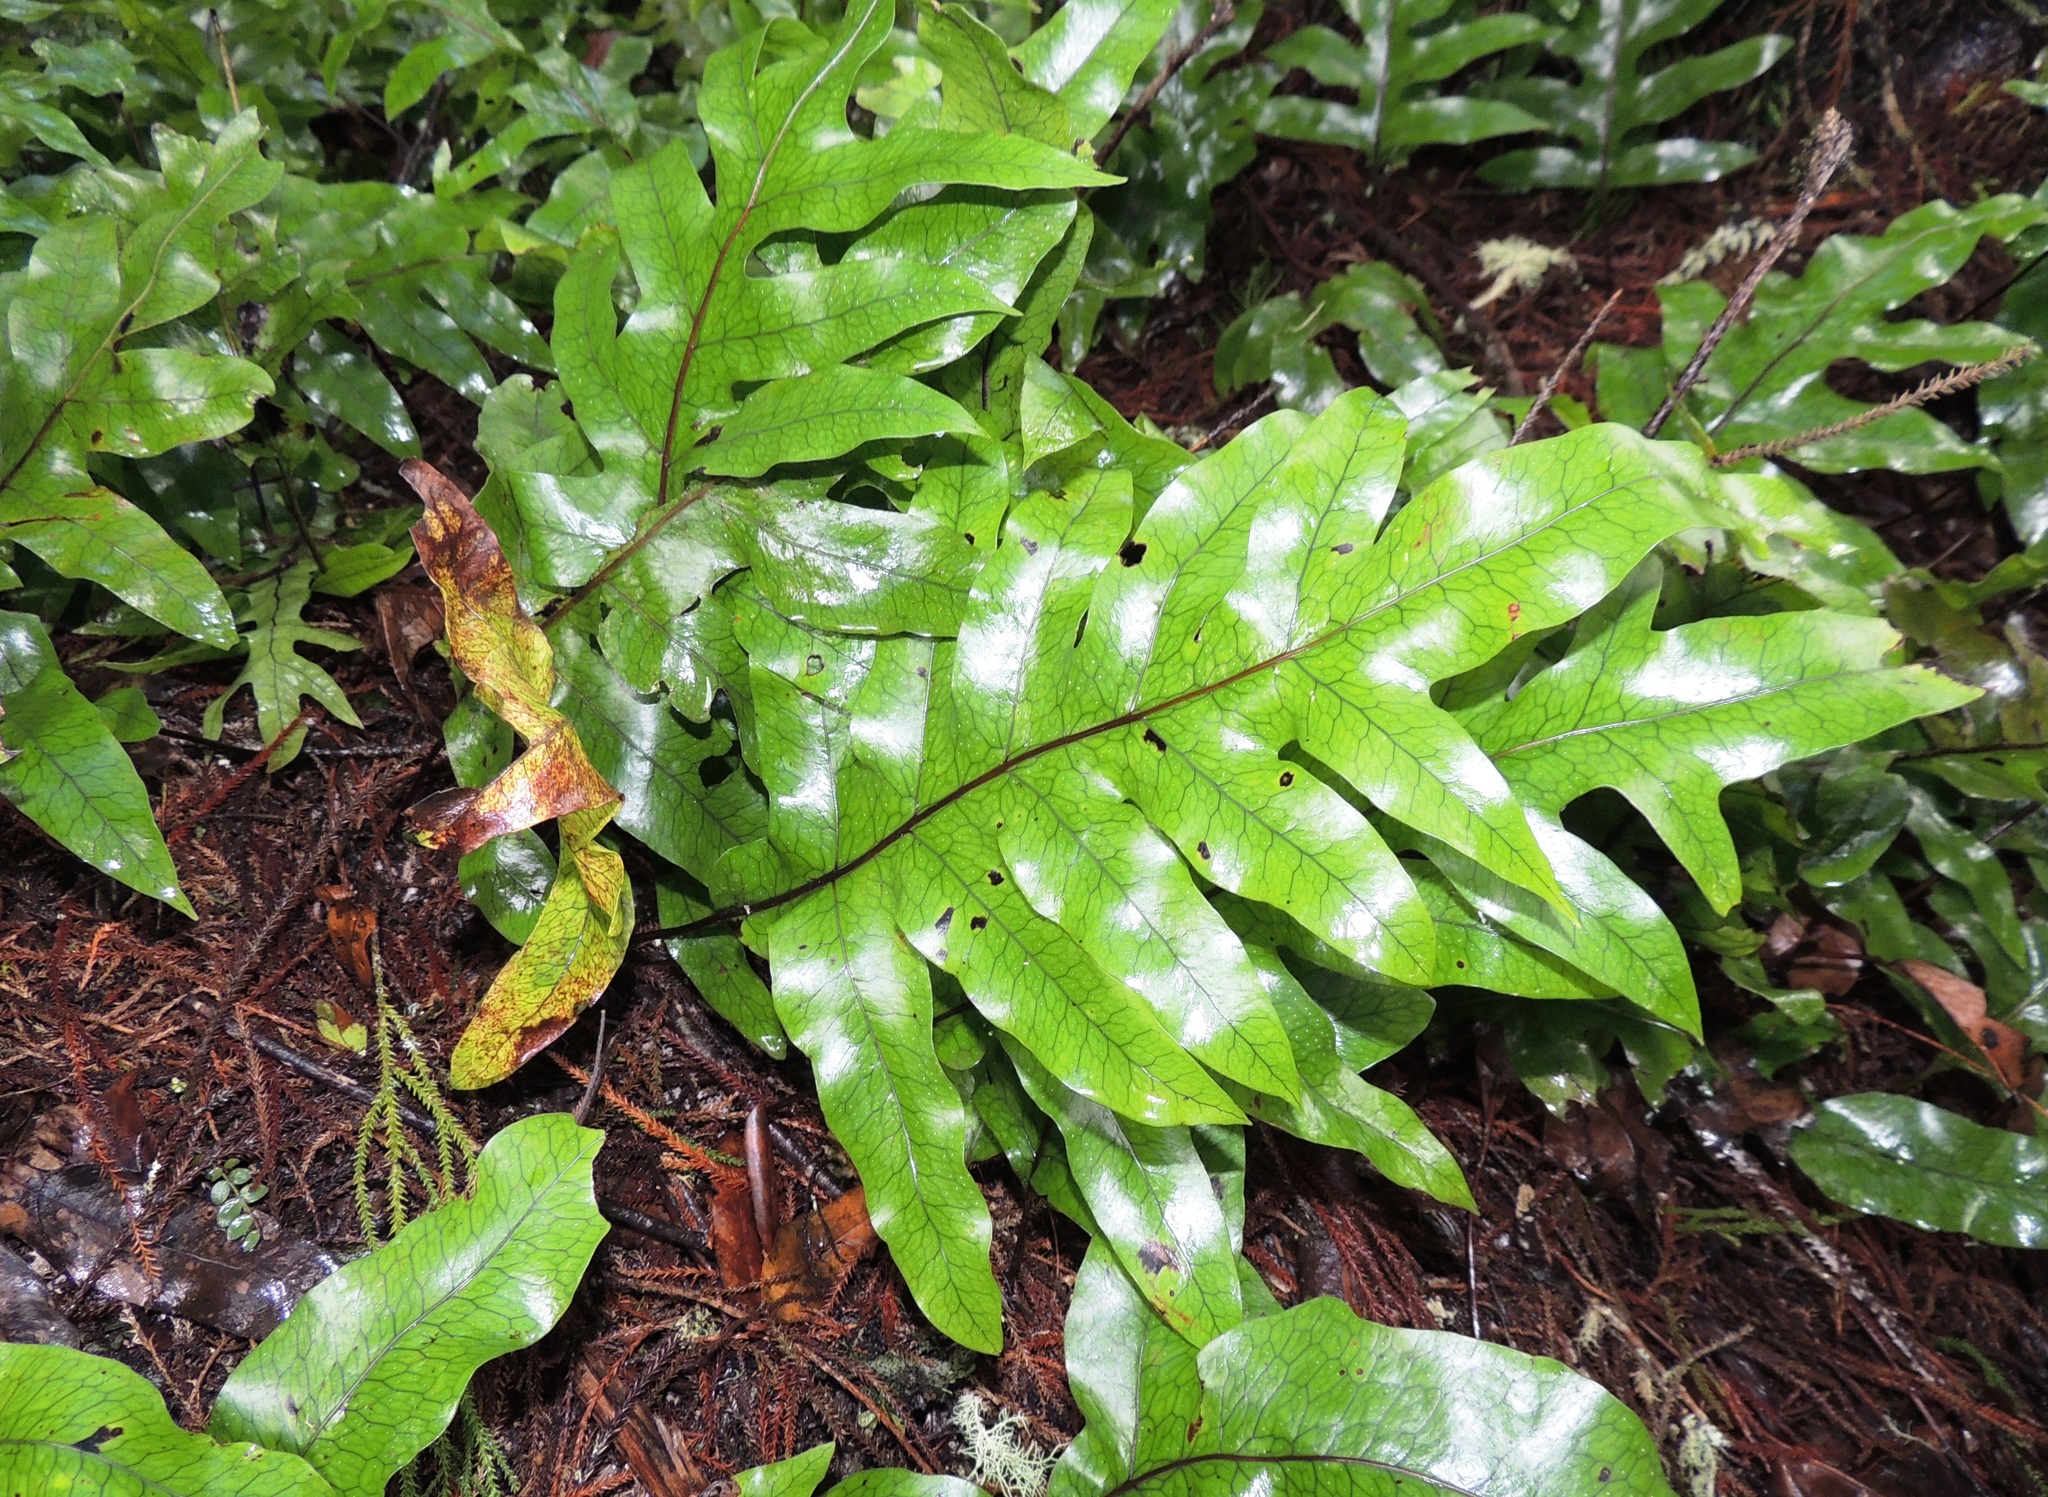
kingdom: Plantae
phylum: Tracheophyta
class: Polypodiopsida
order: Polypodiales
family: Polypodiaceae
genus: Lecanopteris
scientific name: Lecanopteris pustulata
